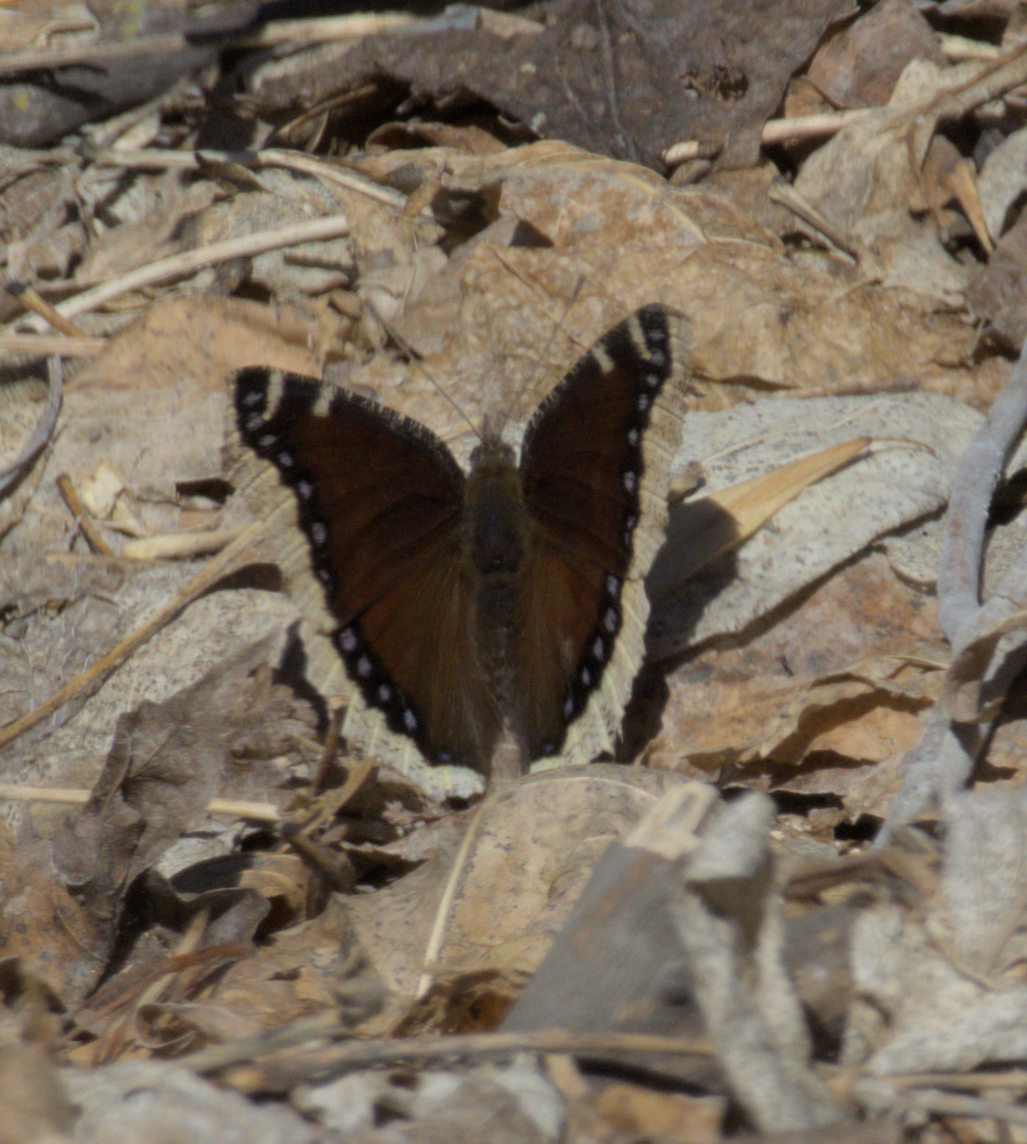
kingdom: Animalia
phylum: Arthropoda
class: Insecta
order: Lepidoptera
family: Nymphalidae
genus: Nymphalis
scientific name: Nymphalis antiopa
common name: Camberwell beauty
